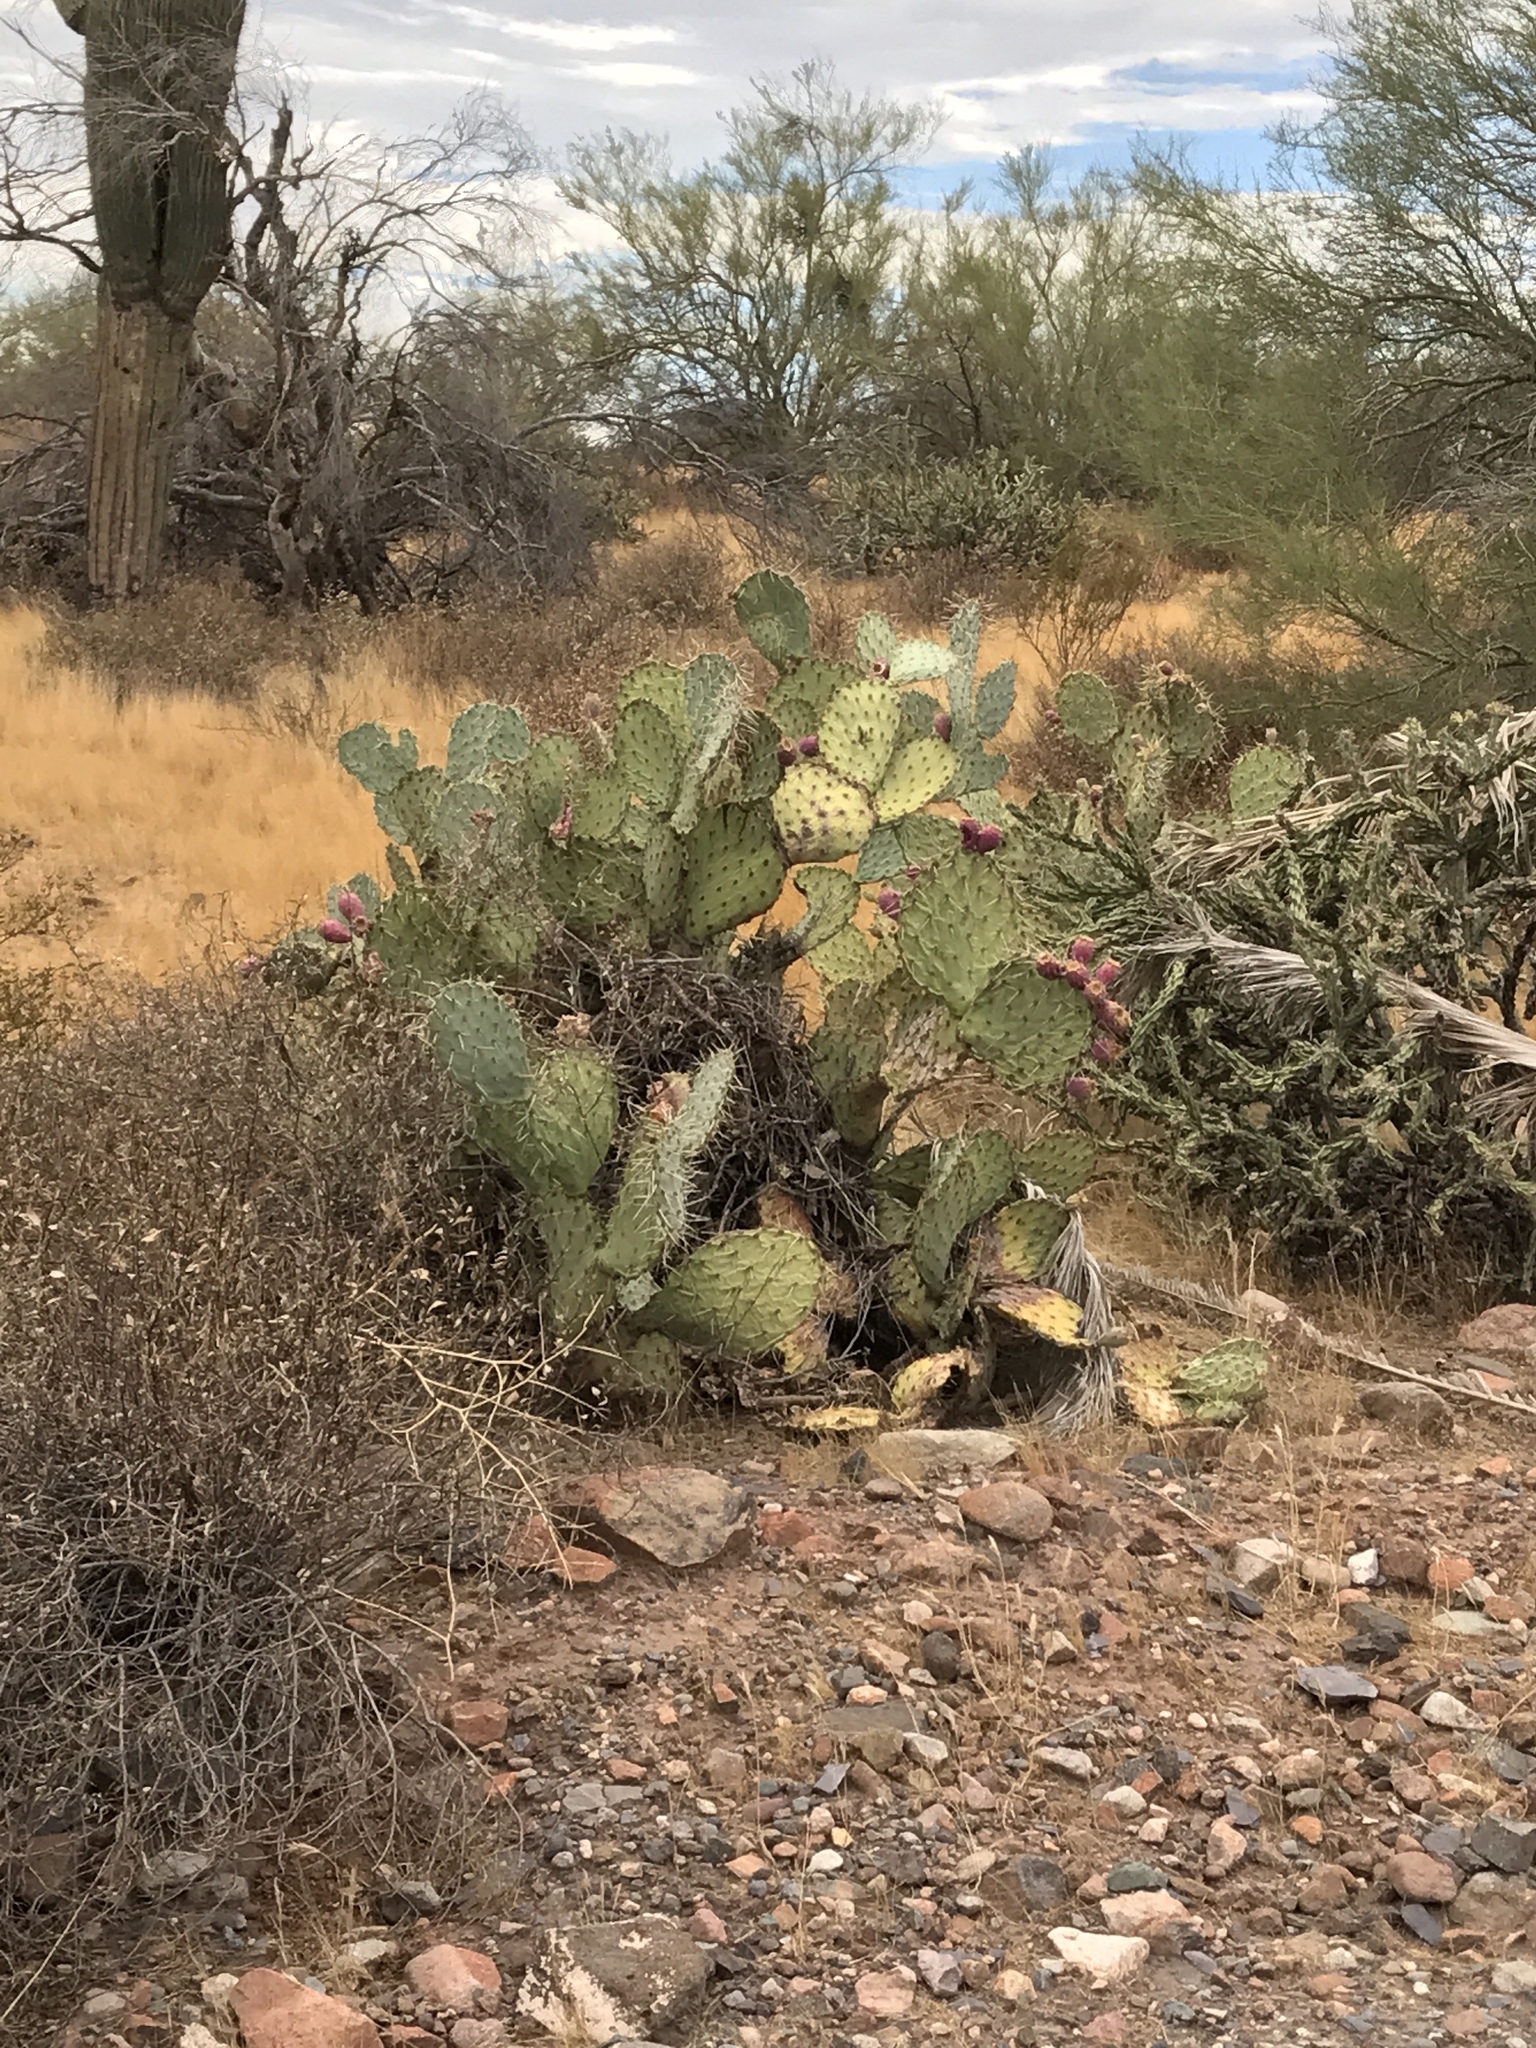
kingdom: Plantae
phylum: Tracheophyta
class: Magnoliopsida
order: Caryophyllales
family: Cactaceae
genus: Opuntia
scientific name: Opuntia phaeacantha
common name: New mexico prickly-pear
